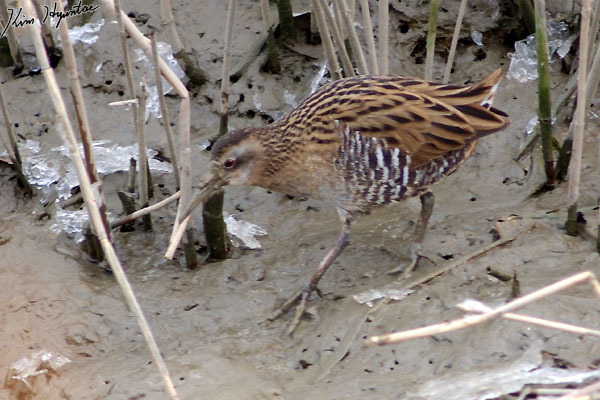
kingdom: Animalia
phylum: Chordata
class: Aves
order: Gruiformes
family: Rallidae
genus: Rallus
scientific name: Rallus indicus
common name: Brown-cheeked rail
